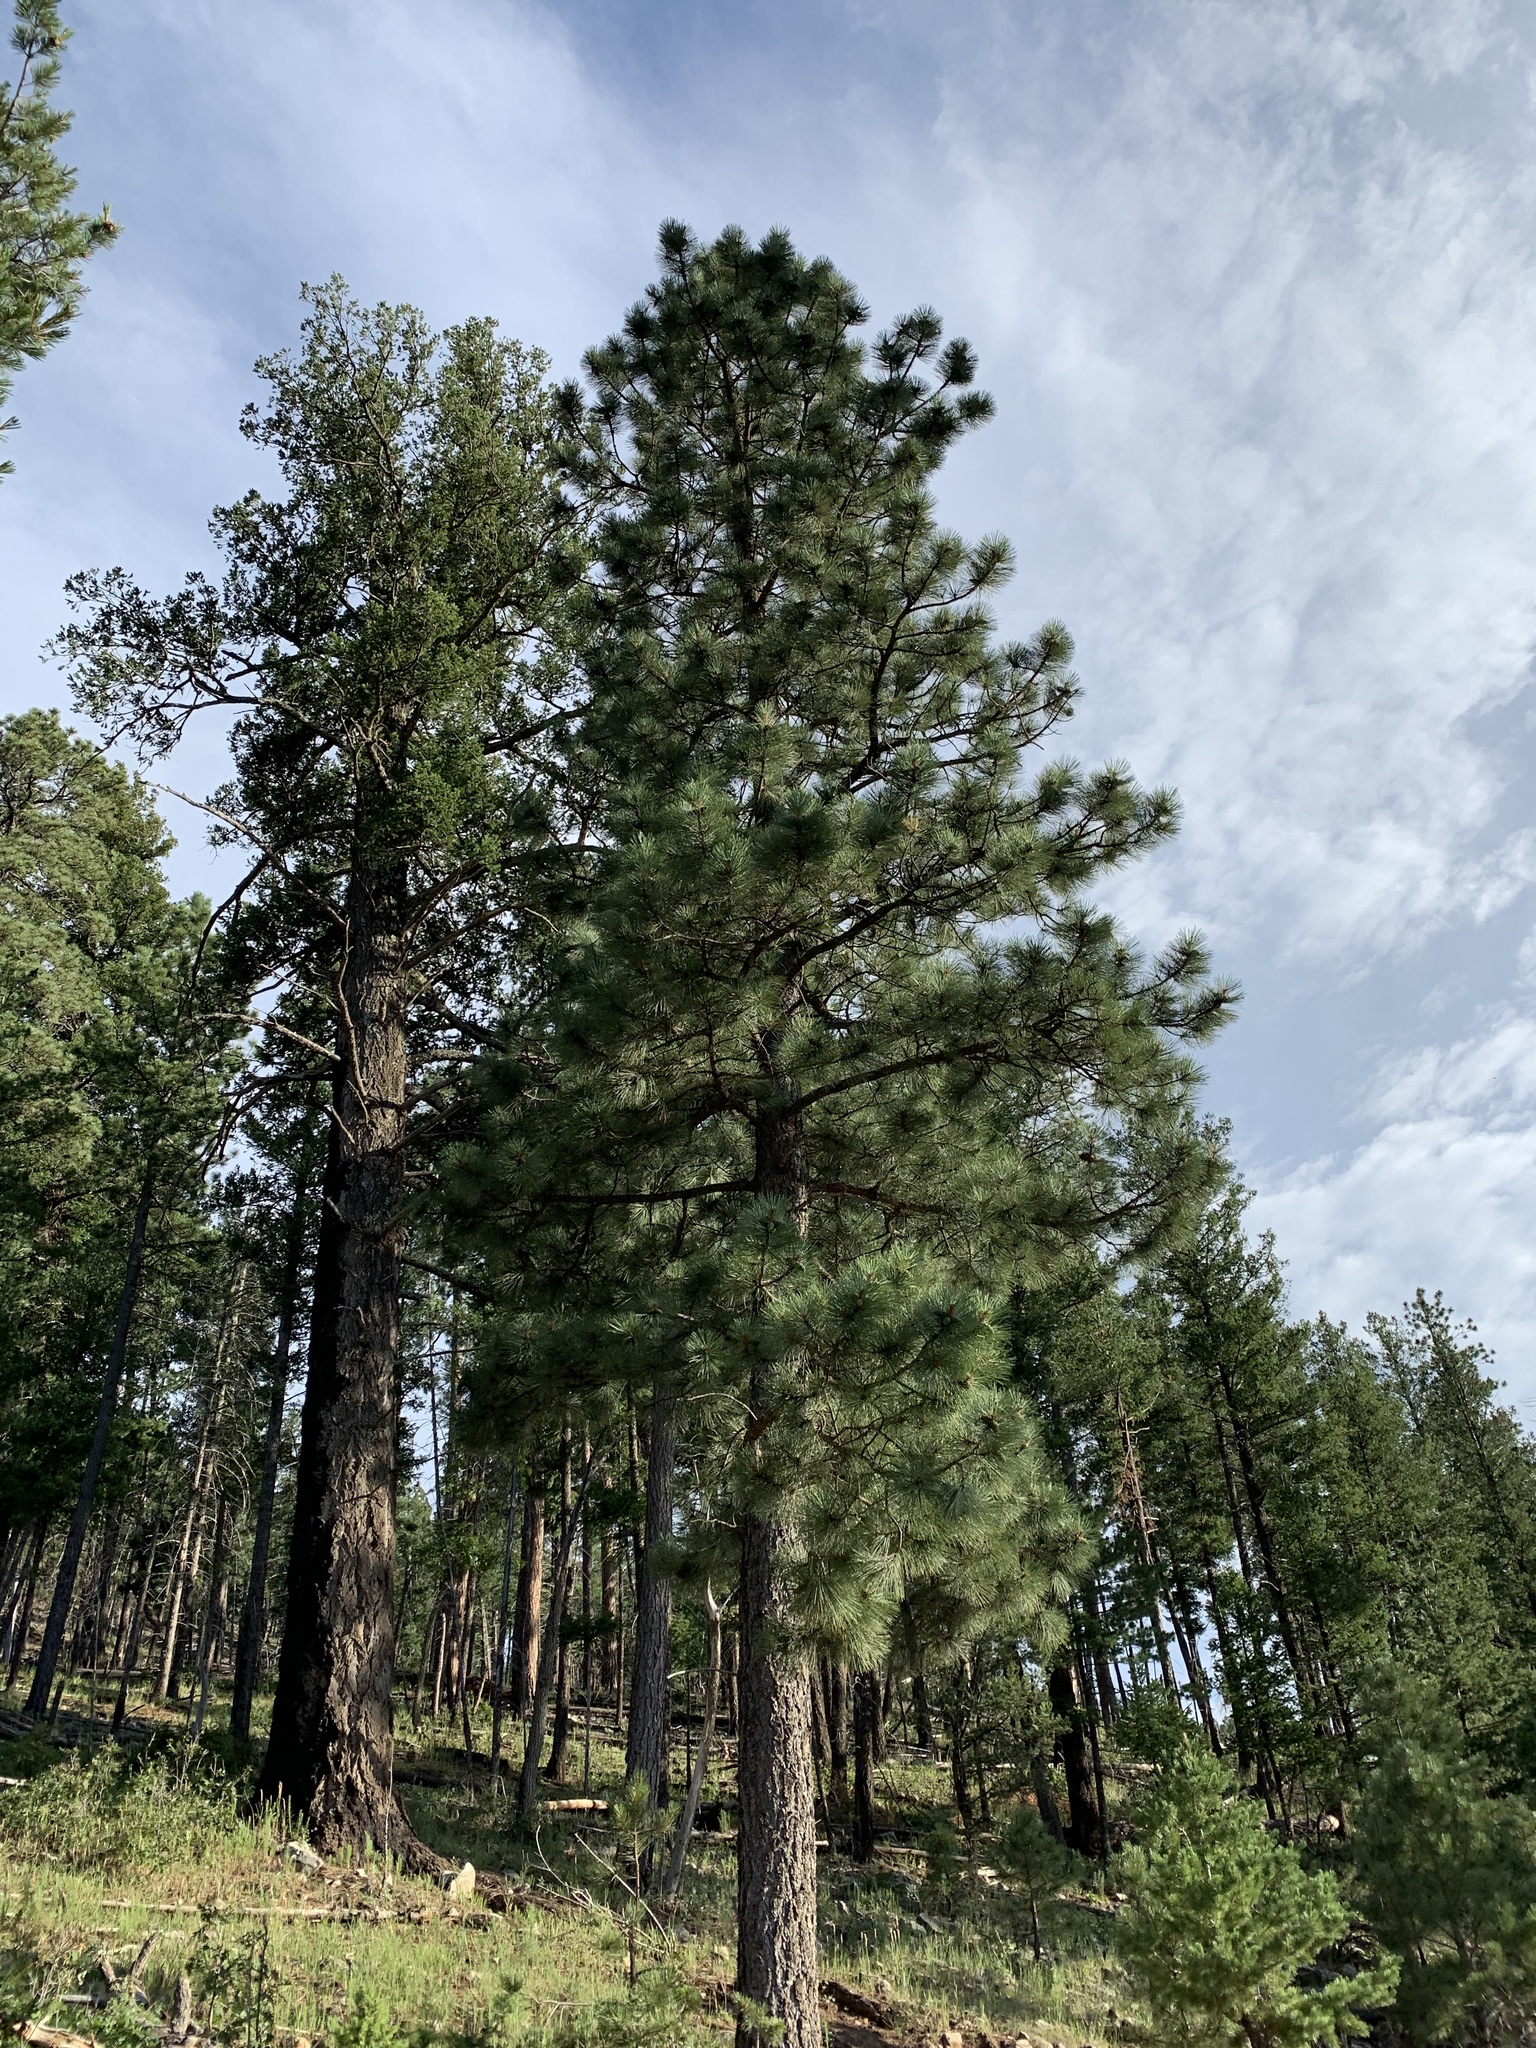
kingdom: Plantae
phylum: Tracheophyta
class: Pinopsida
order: Pinales
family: Pinaceae
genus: Pinus
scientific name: Pinus ponderosa
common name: Western yellow-pine
